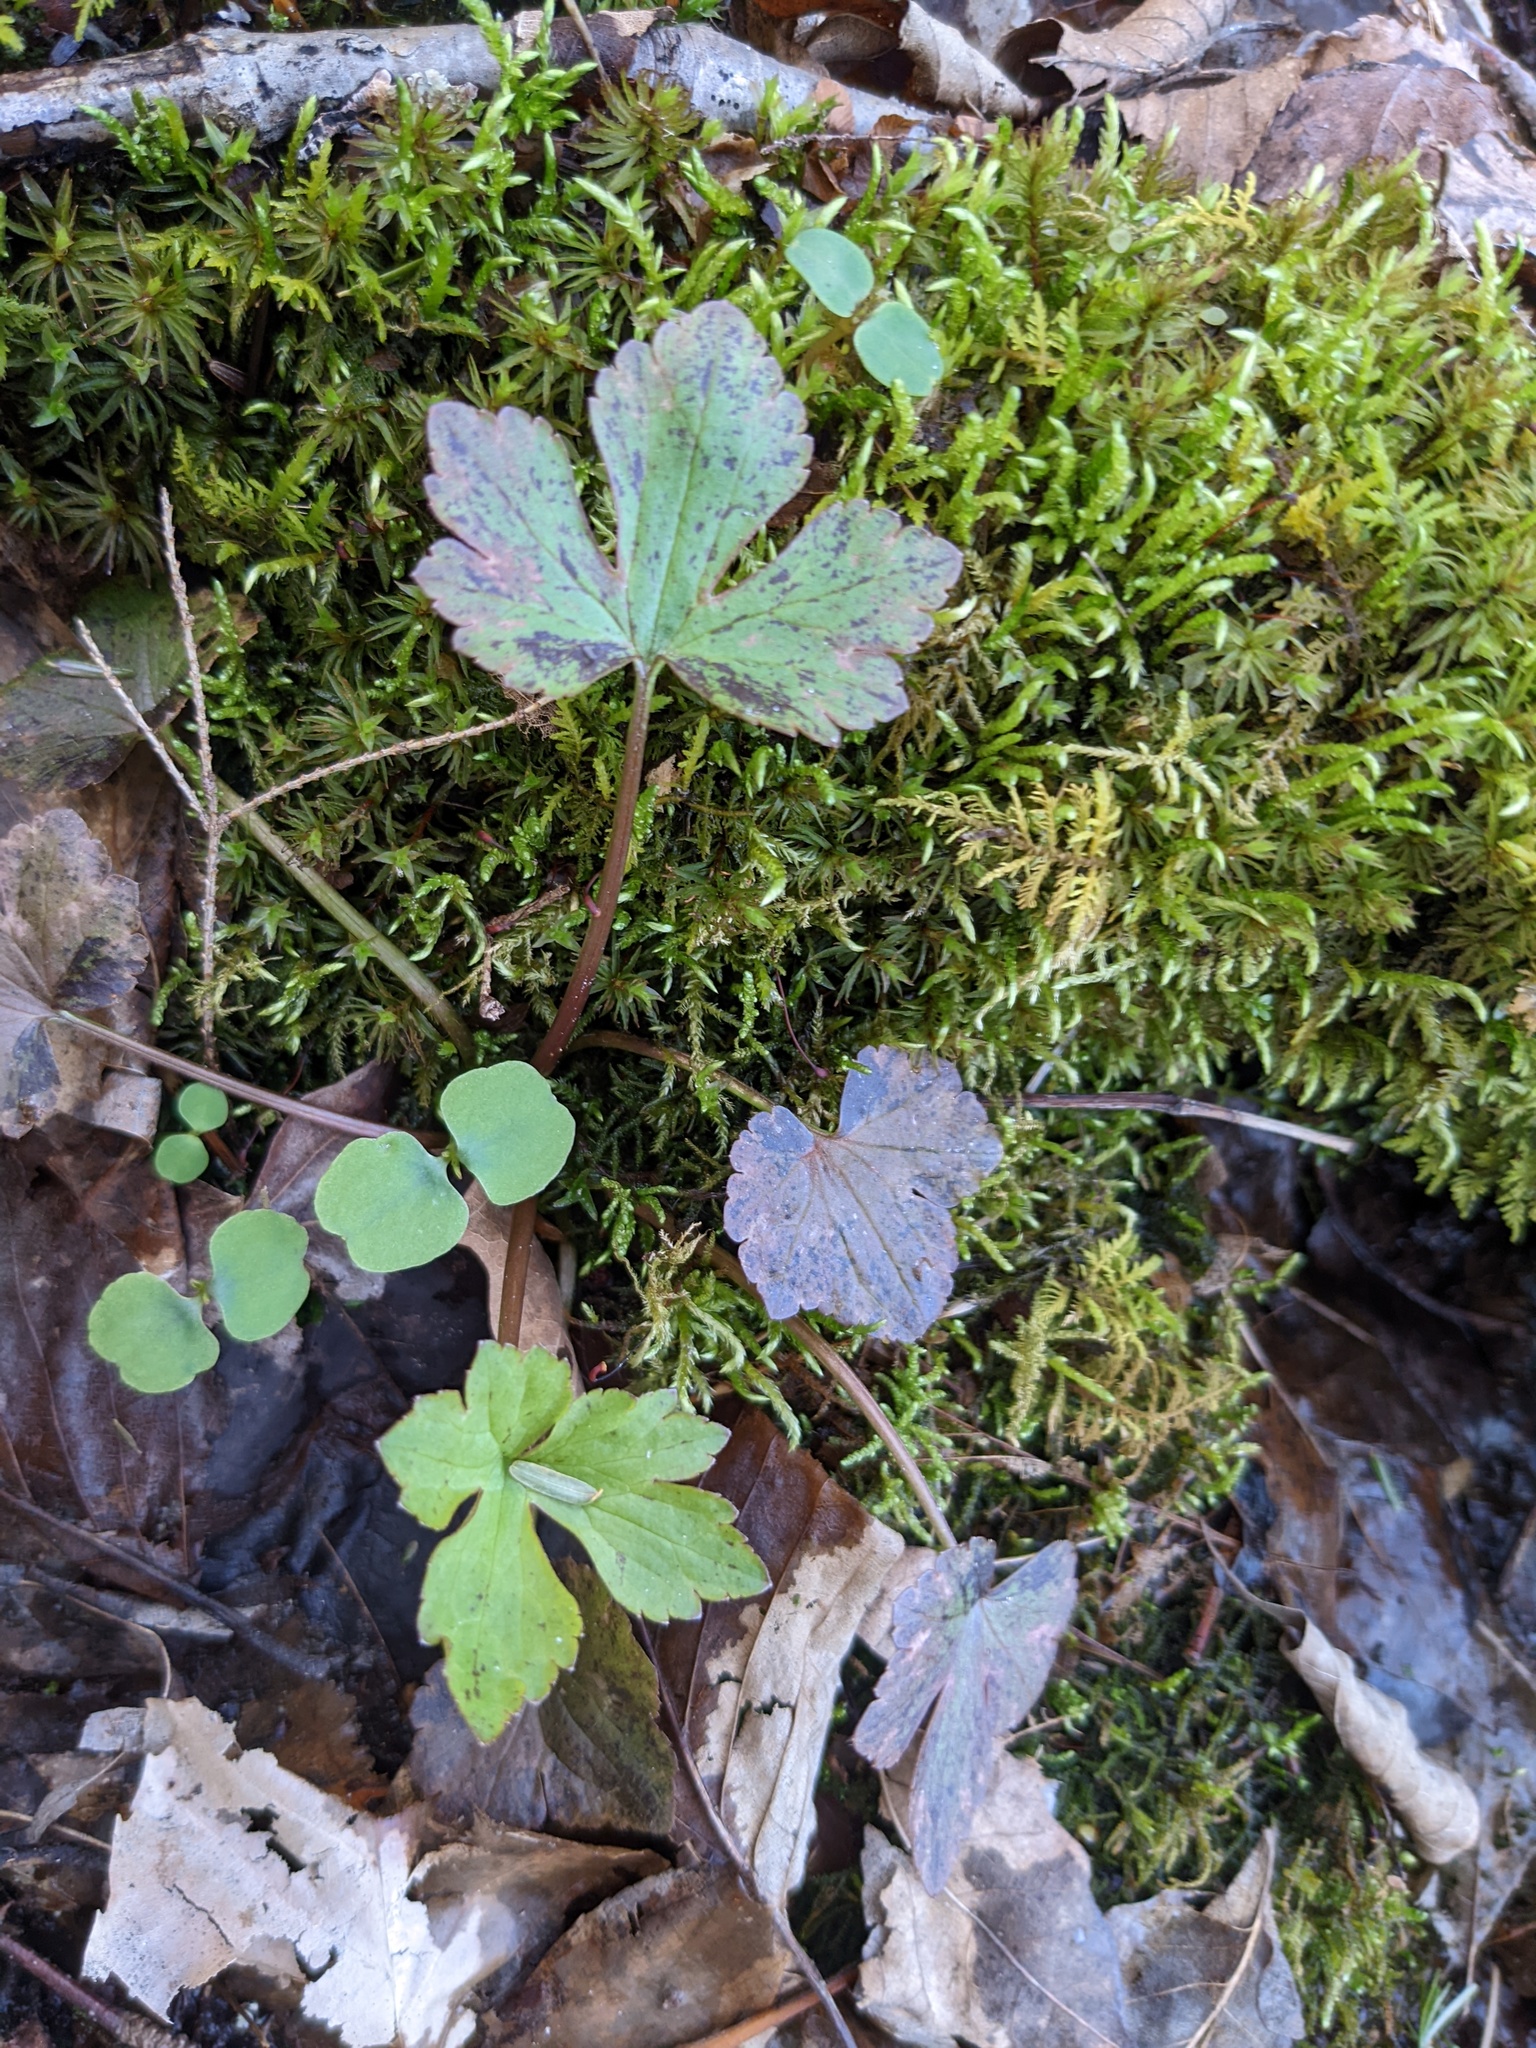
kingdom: Plantae
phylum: Tracheophyta
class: Magnoliopsida
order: Ericales
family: Balsaminaceae
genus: Impatiens
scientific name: Impatiens
